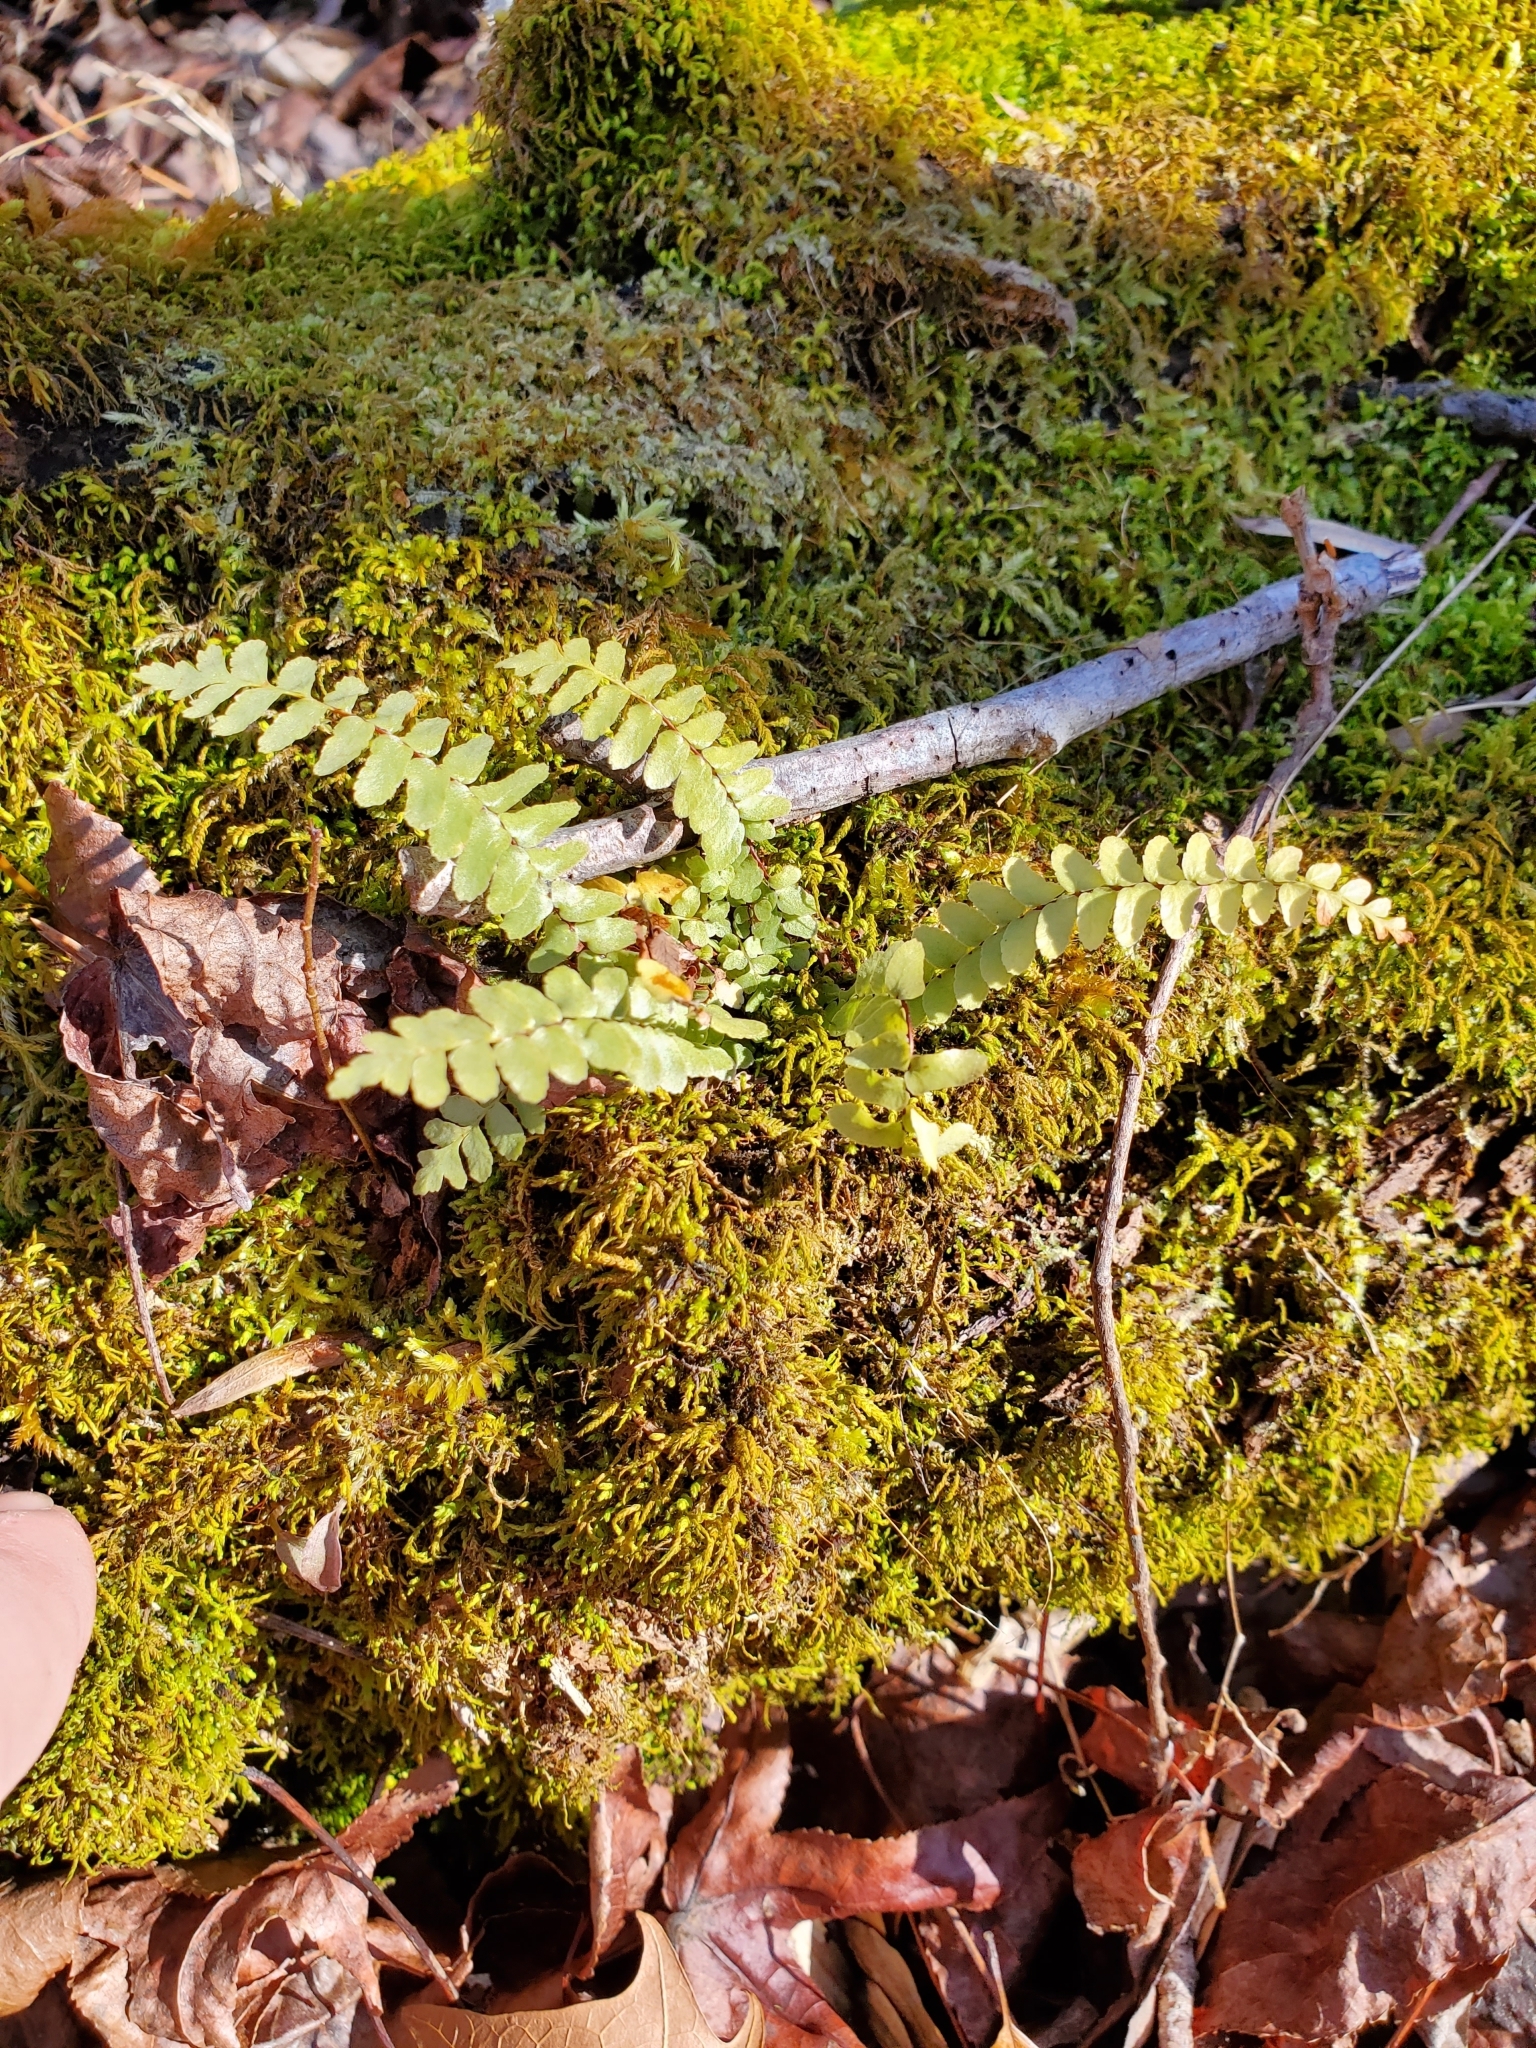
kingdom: Plantae
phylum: Tracheophyta
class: Polypodiopsida
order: Polypodiales
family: Aspleniaceae
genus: Asplenium
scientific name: Asplenium platyneuron
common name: Ebony spleenwort
